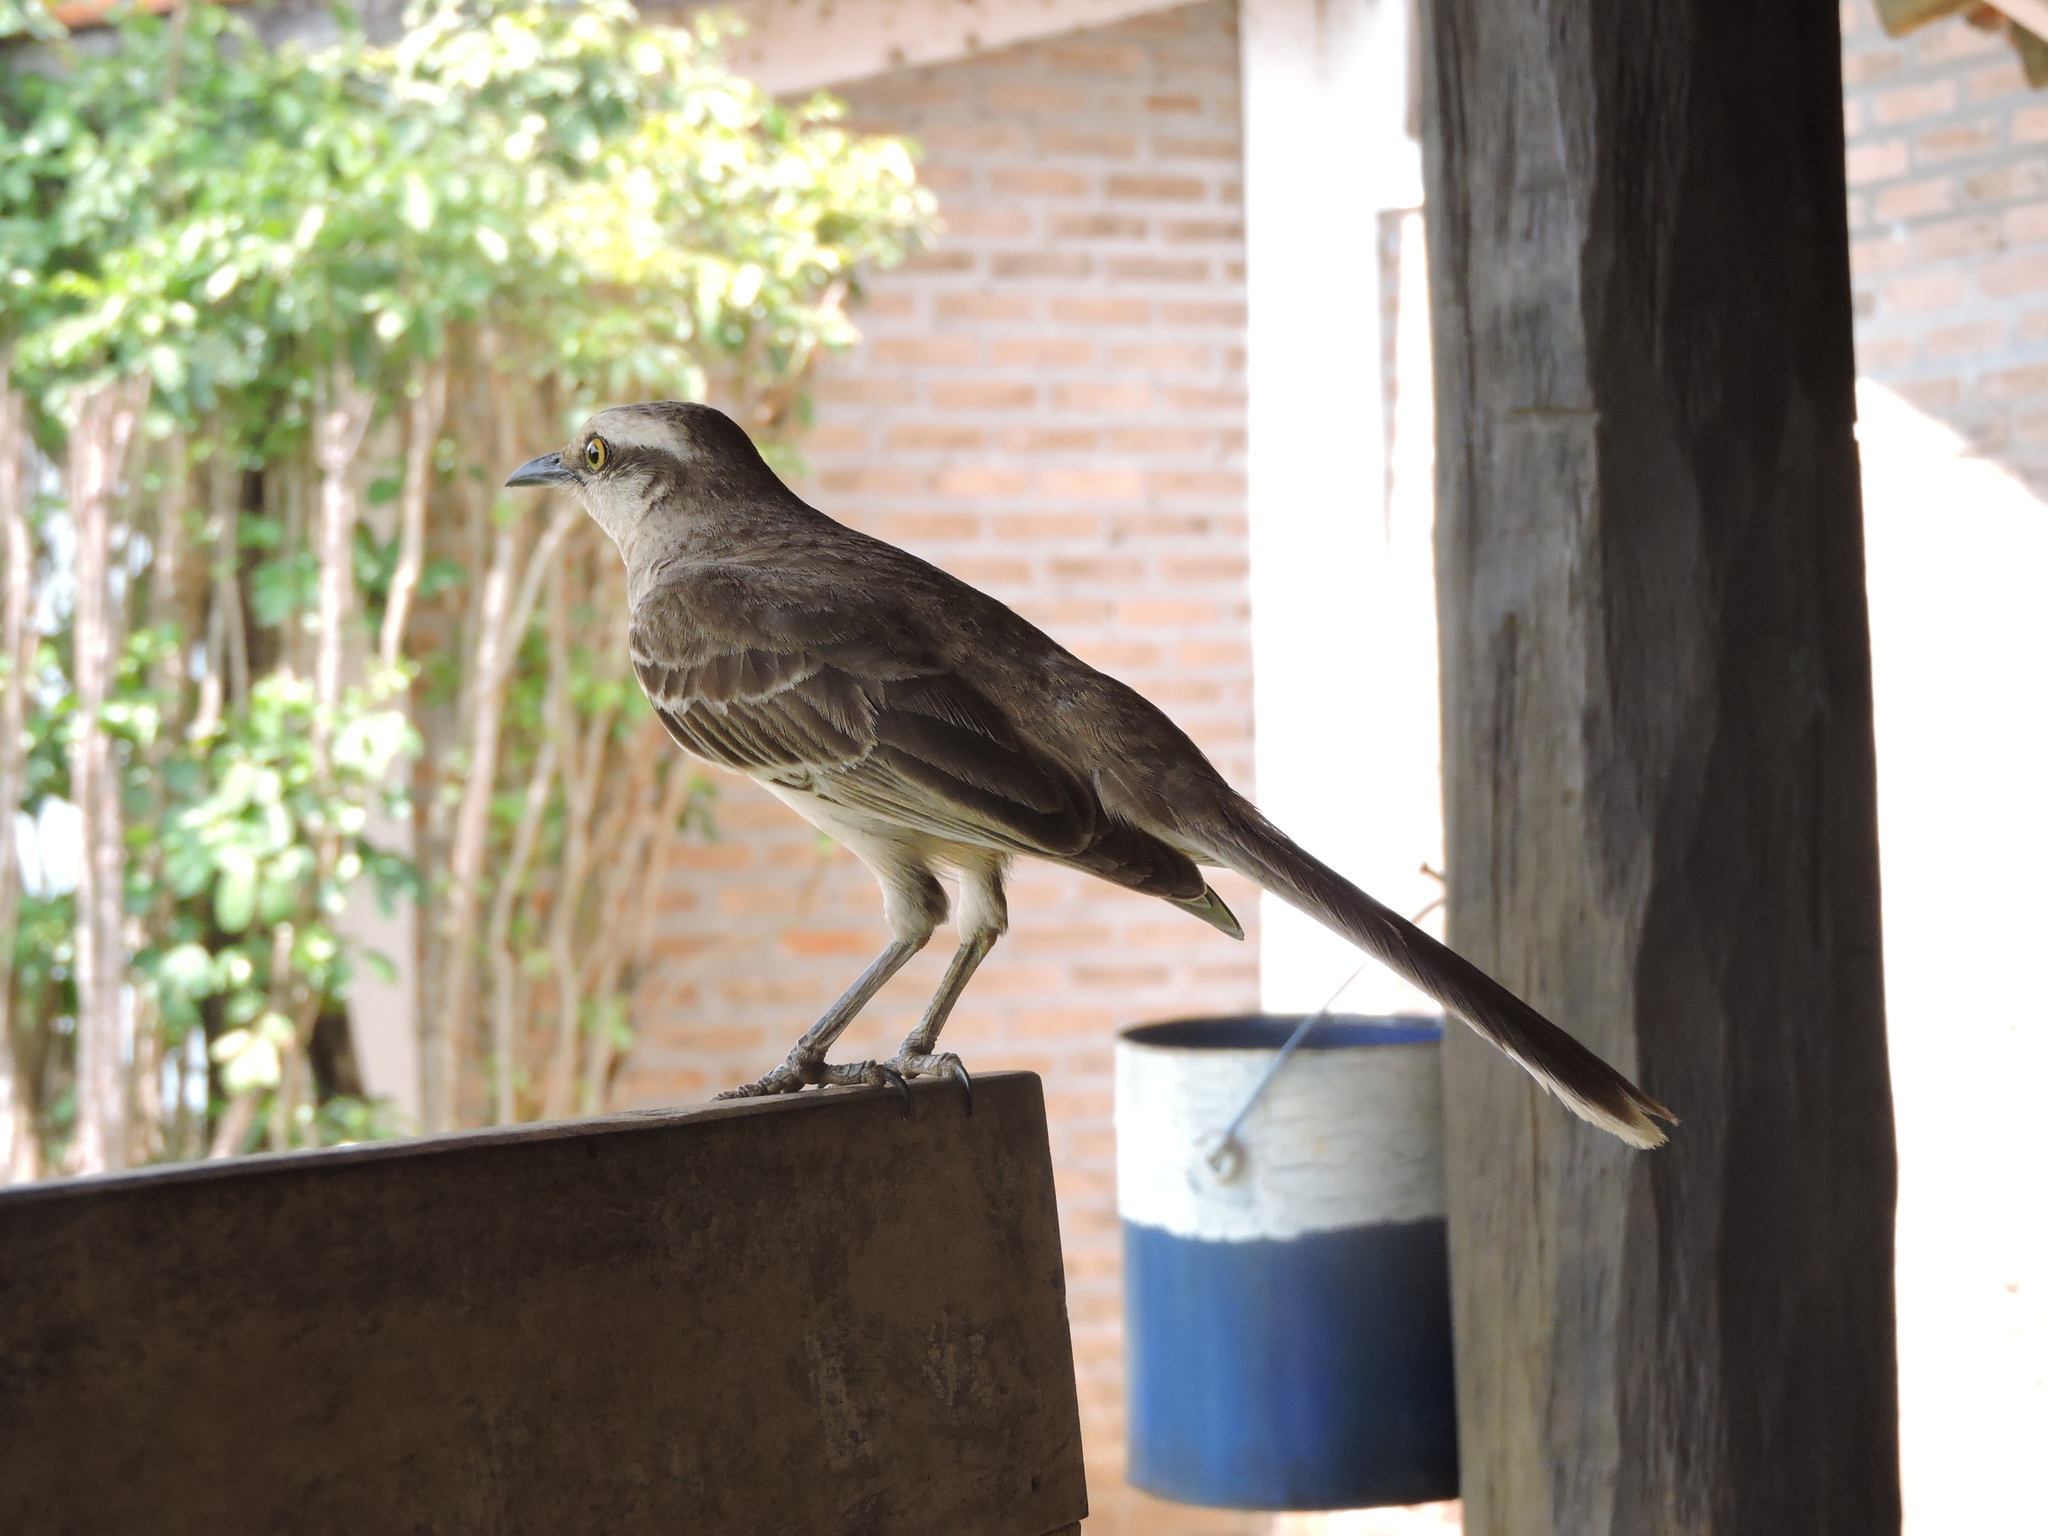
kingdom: Animalia
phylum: Chordata
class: Aves
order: Passeriformes
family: Mimidae
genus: Mimus
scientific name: Mimus saturninus
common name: Chalk-browed mockingbird
